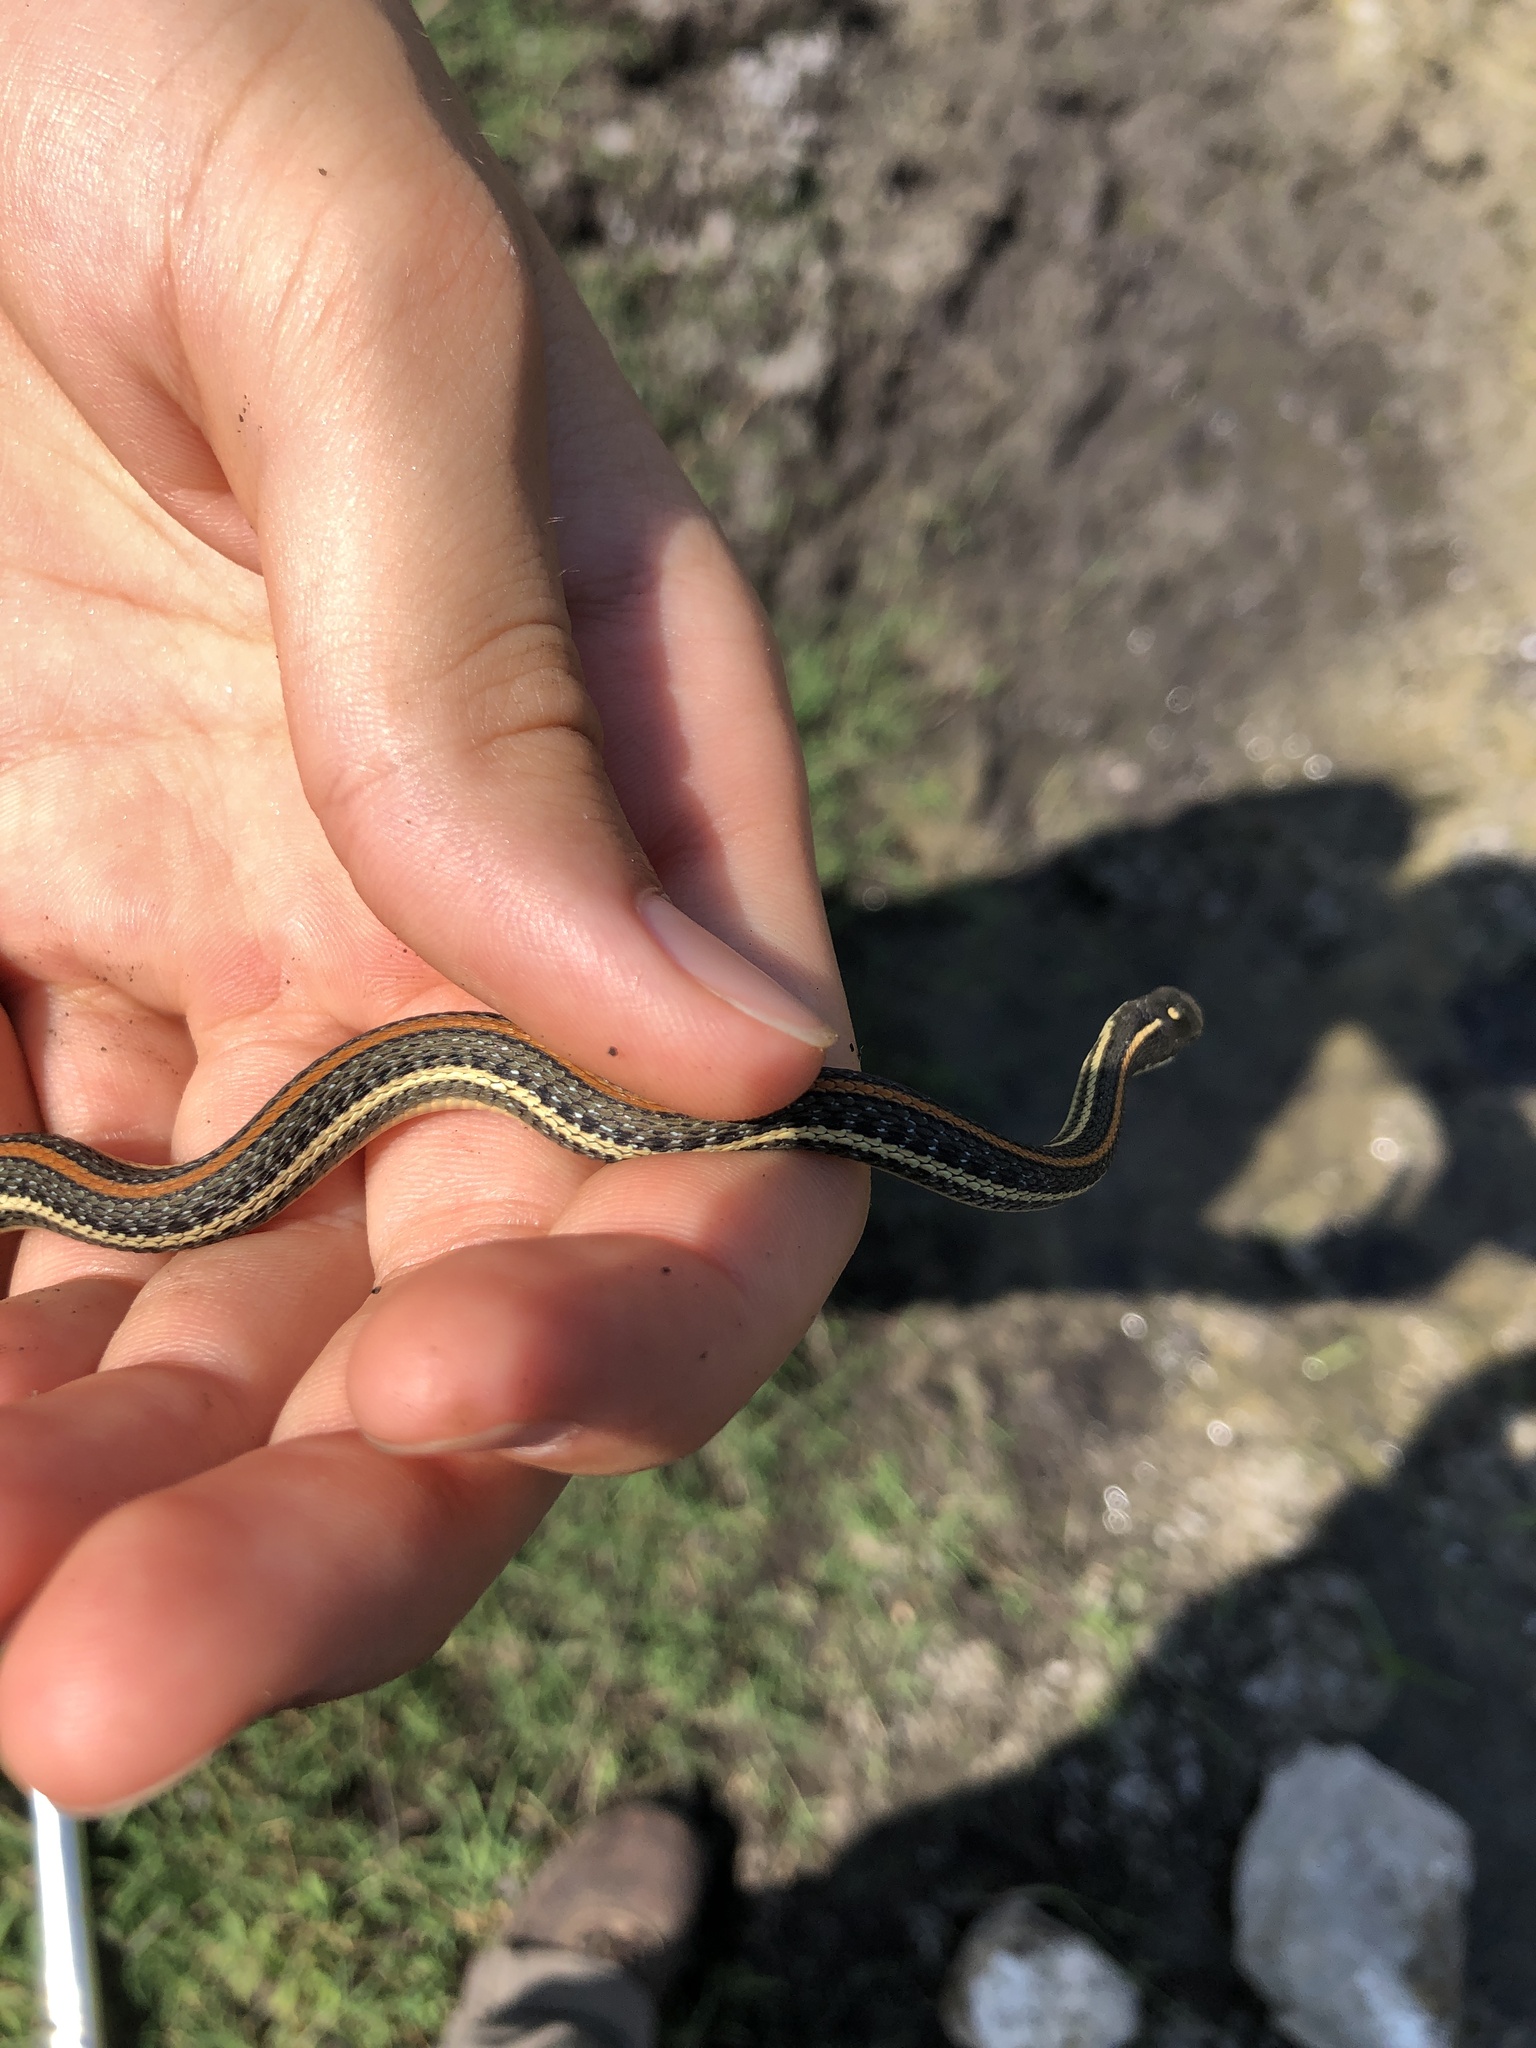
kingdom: Animalia
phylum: Chordata
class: Squamata
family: Colubridae
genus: Thamnophis
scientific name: Thamnophis proximus
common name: Western ribbon snake
